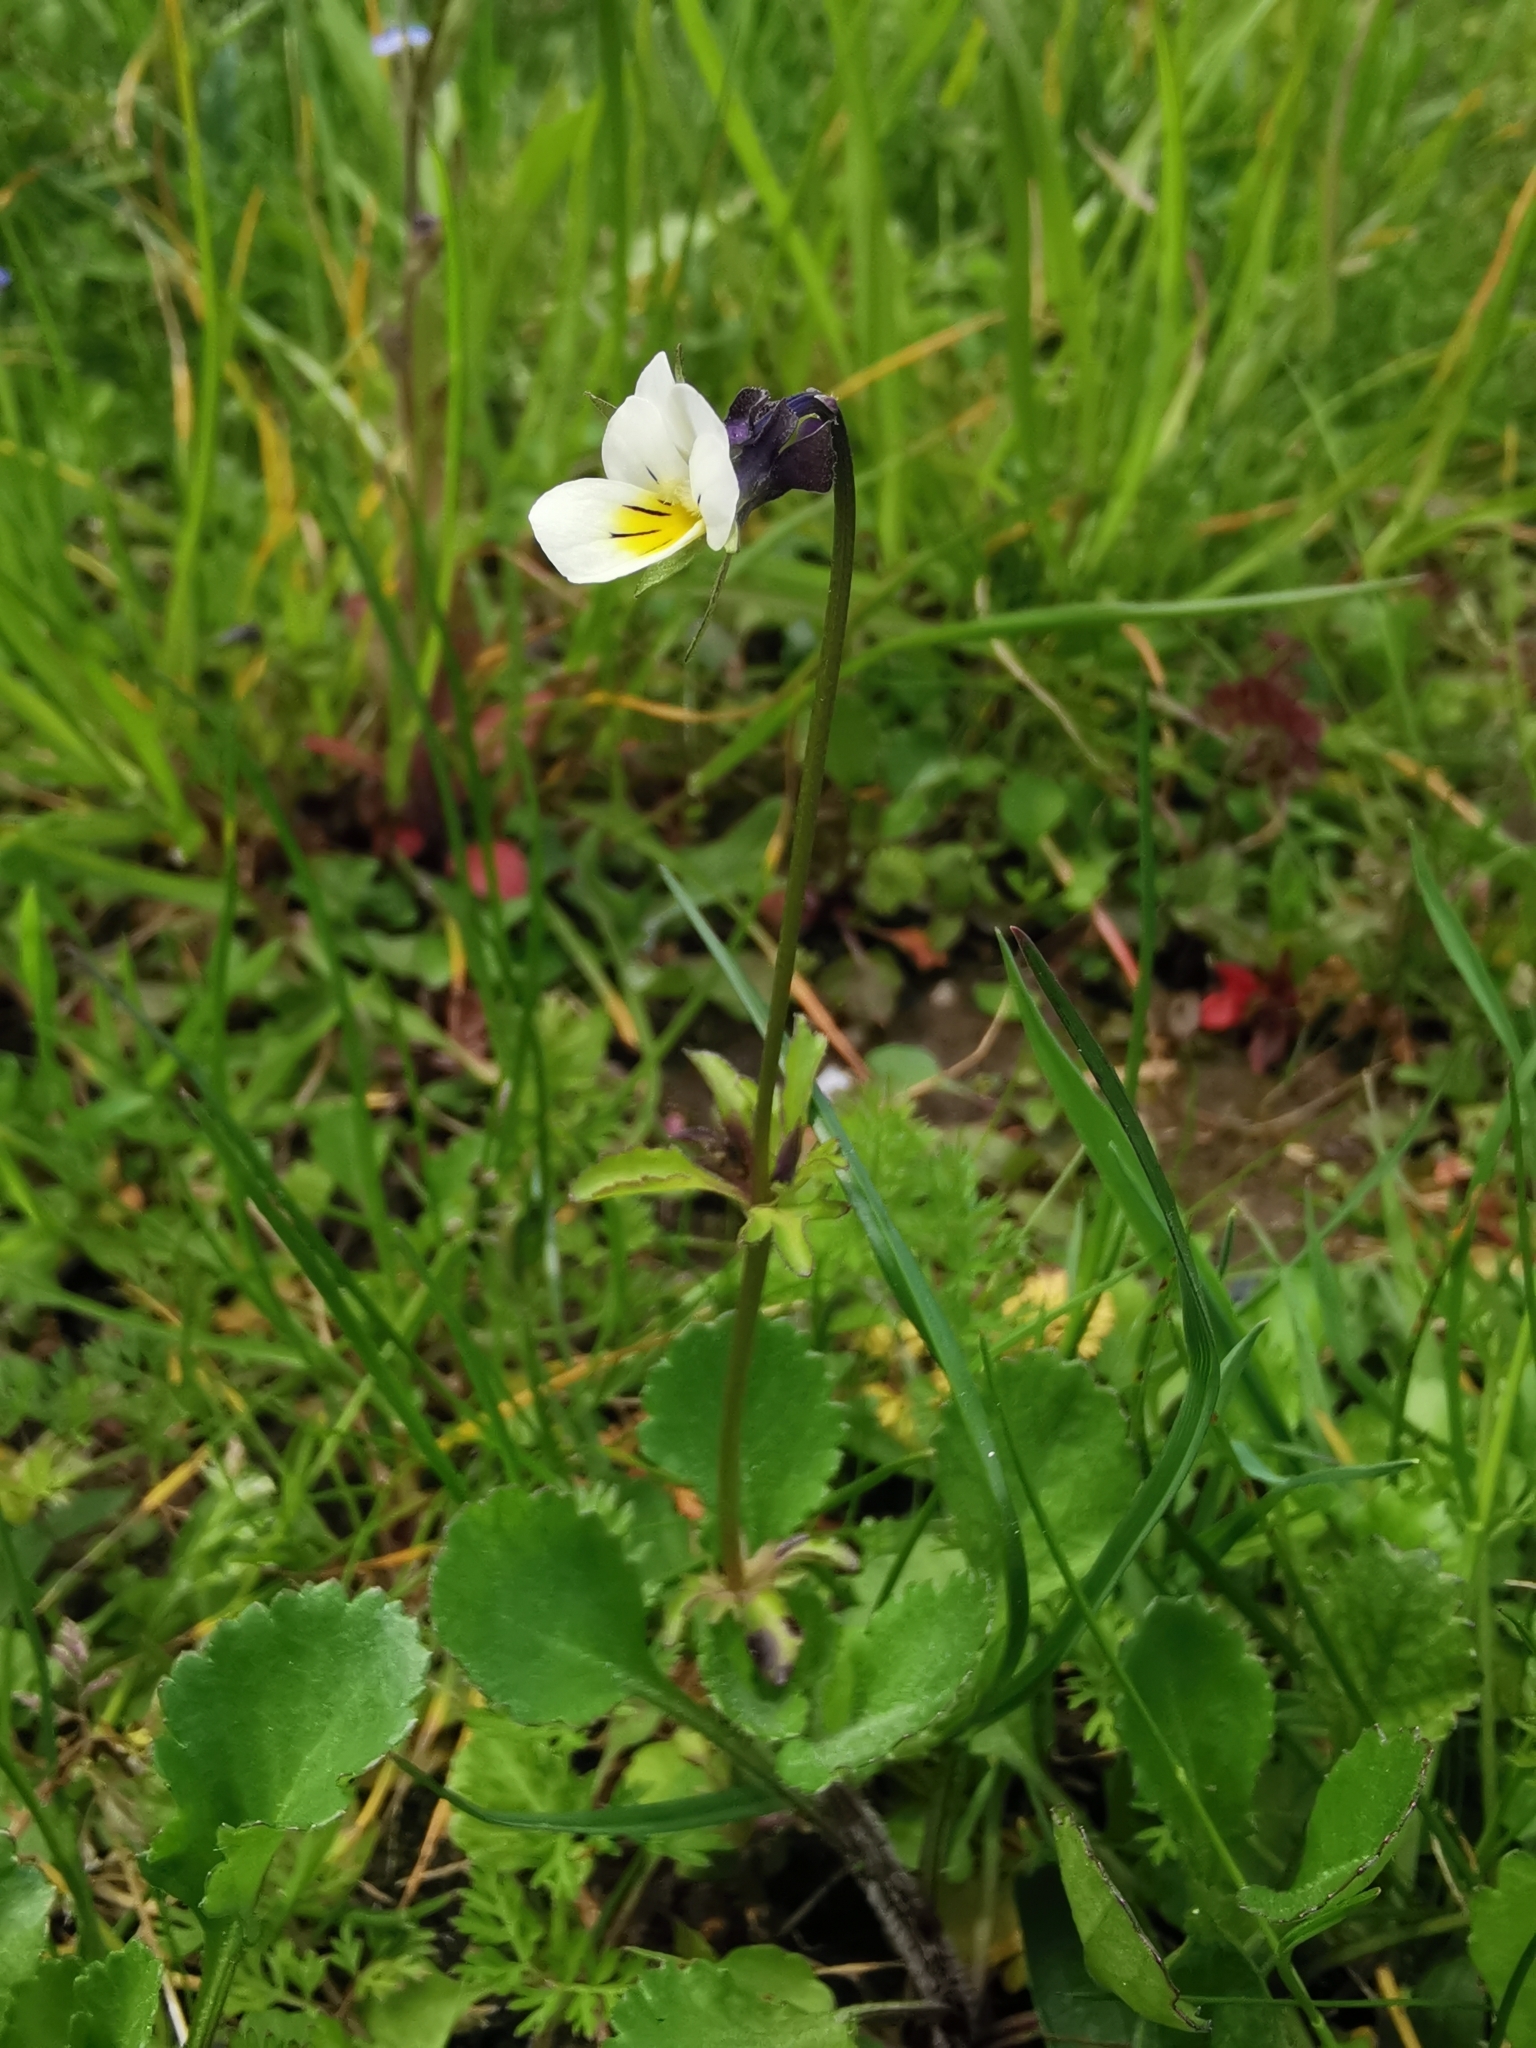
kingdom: Plantae
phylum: Tracheophyta
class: Magnoliopsida
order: Malpighiales
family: Violaceae
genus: Viola
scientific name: Viola arvensis
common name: Field pansy
